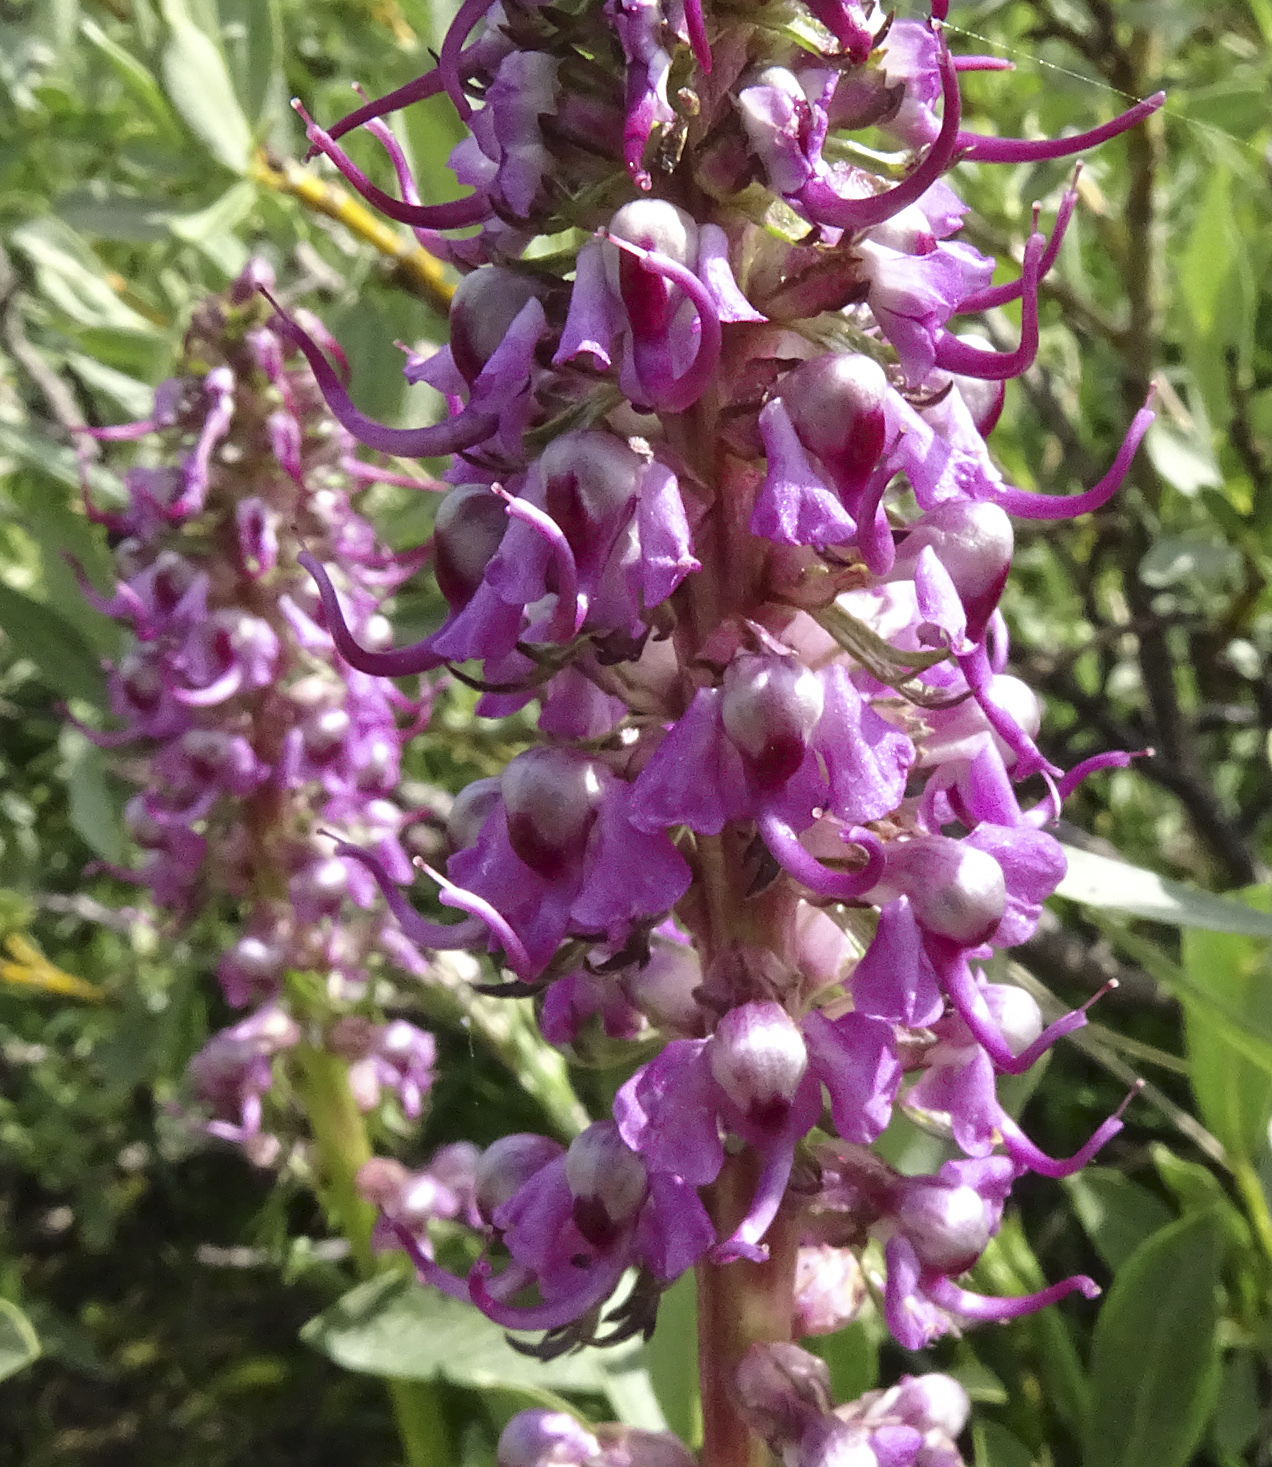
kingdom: Plantae
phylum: Tracheophyta
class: Magnoliopsida
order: Lamiales
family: Orobanchaceae
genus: Pedicularis
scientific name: Pedicularis groenlandica
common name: Elephant's-head
